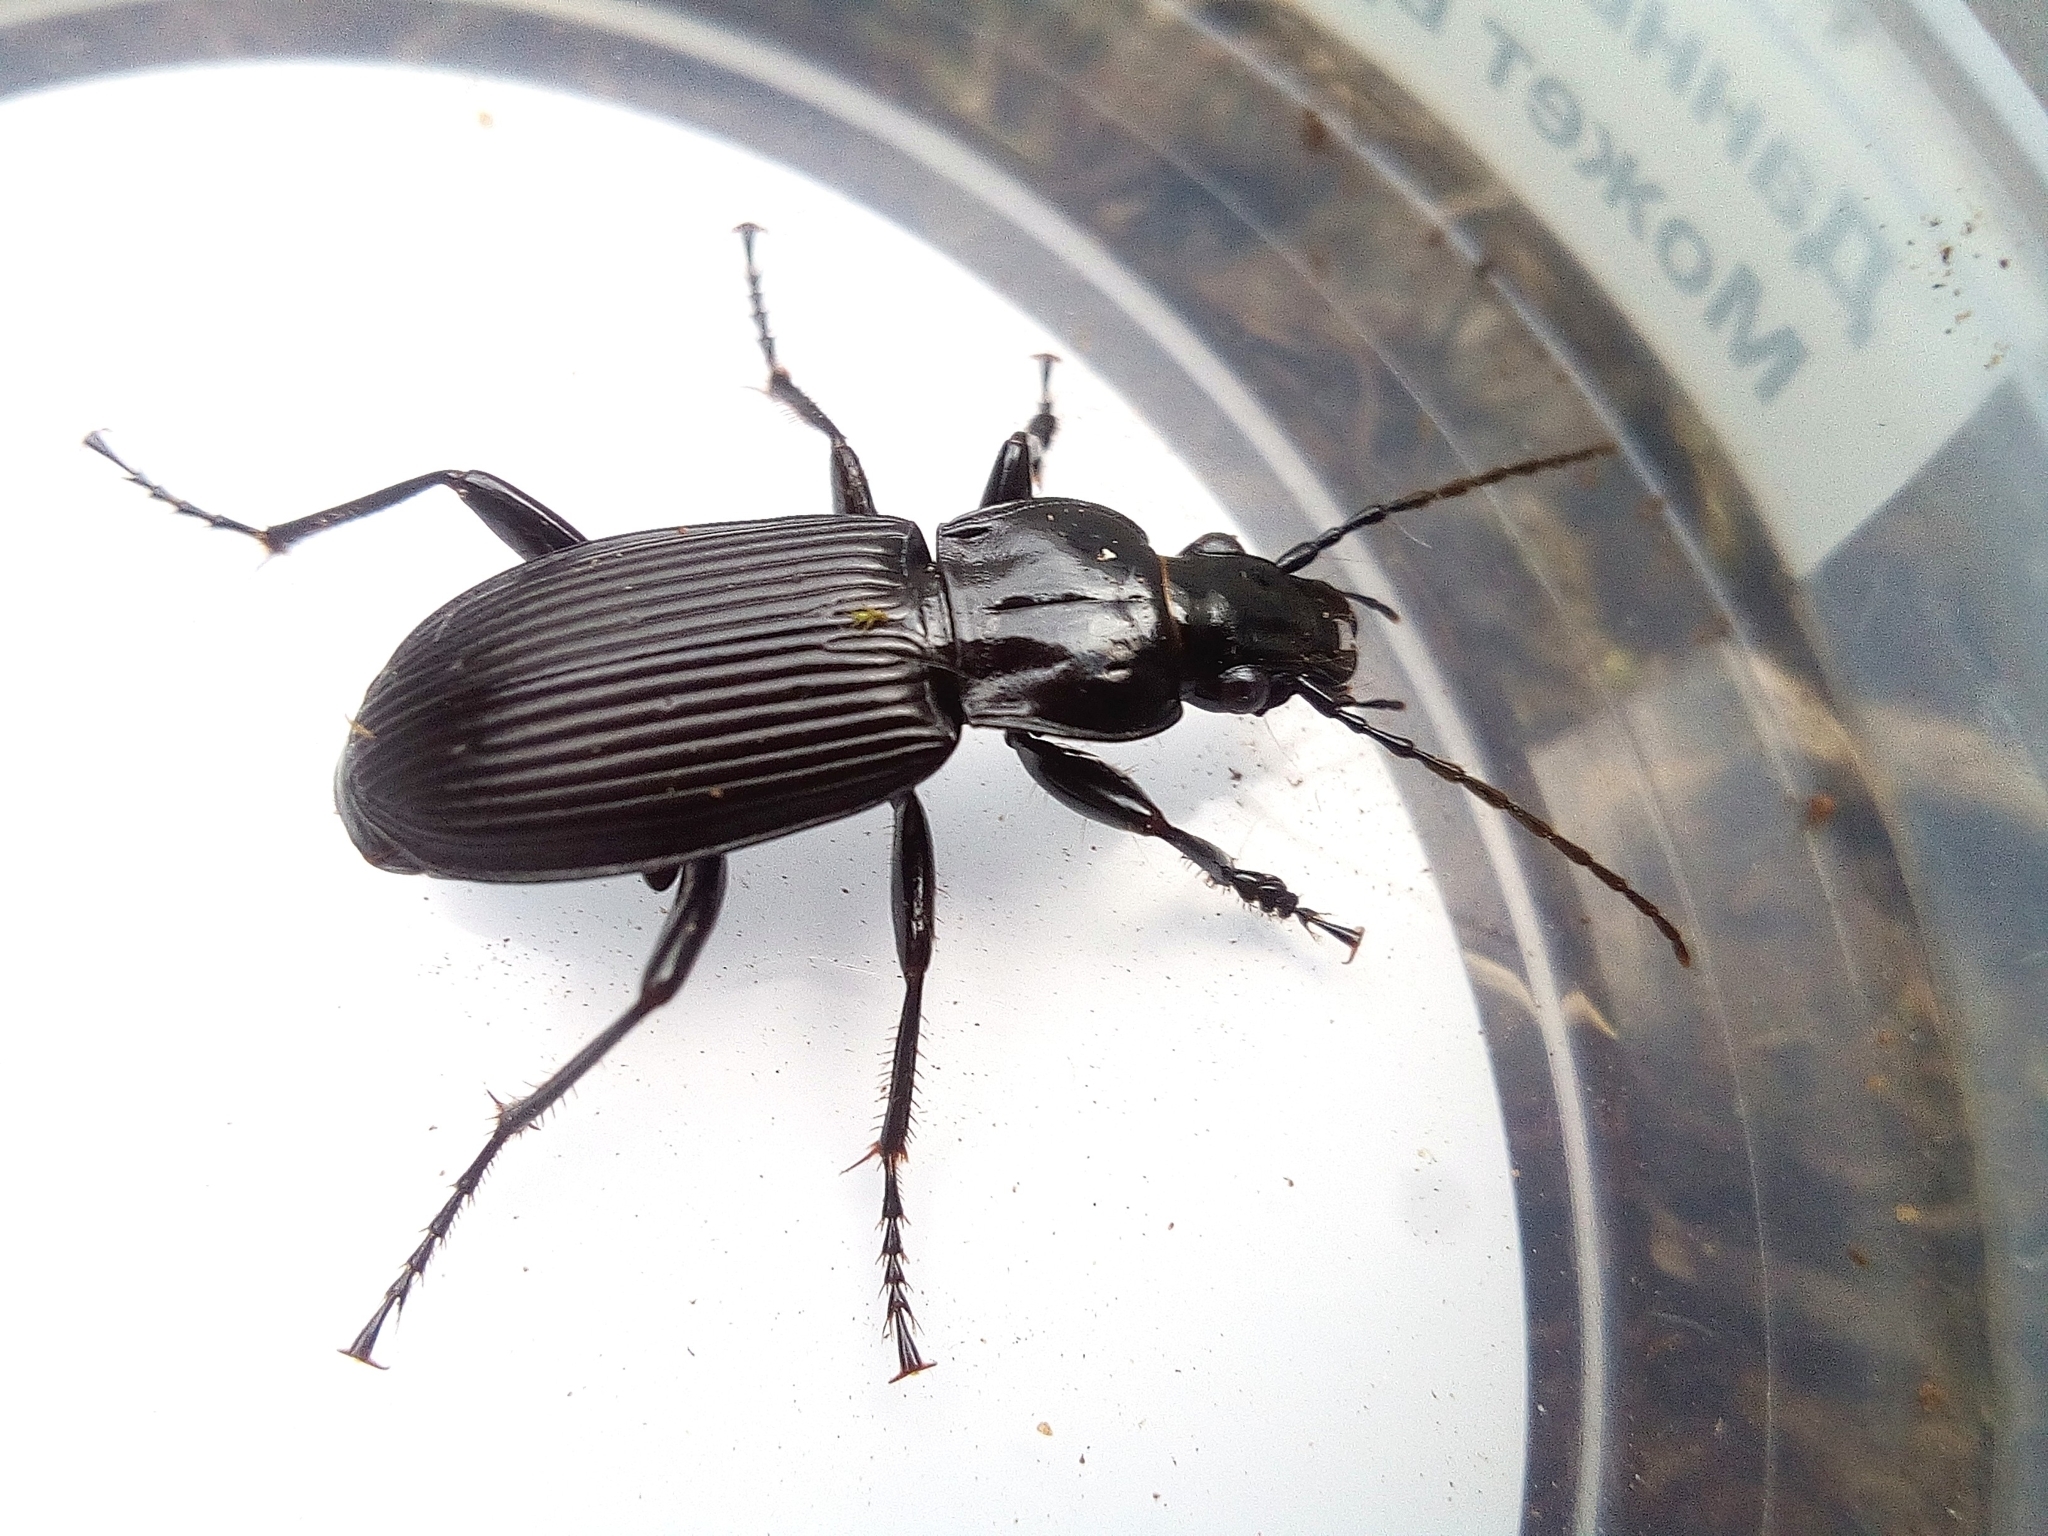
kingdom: Animalia
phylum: Arthropoda
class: Insecta
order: Coleoptera
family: Carabidae
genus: Pterostichus
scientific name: Pterostichus niger
